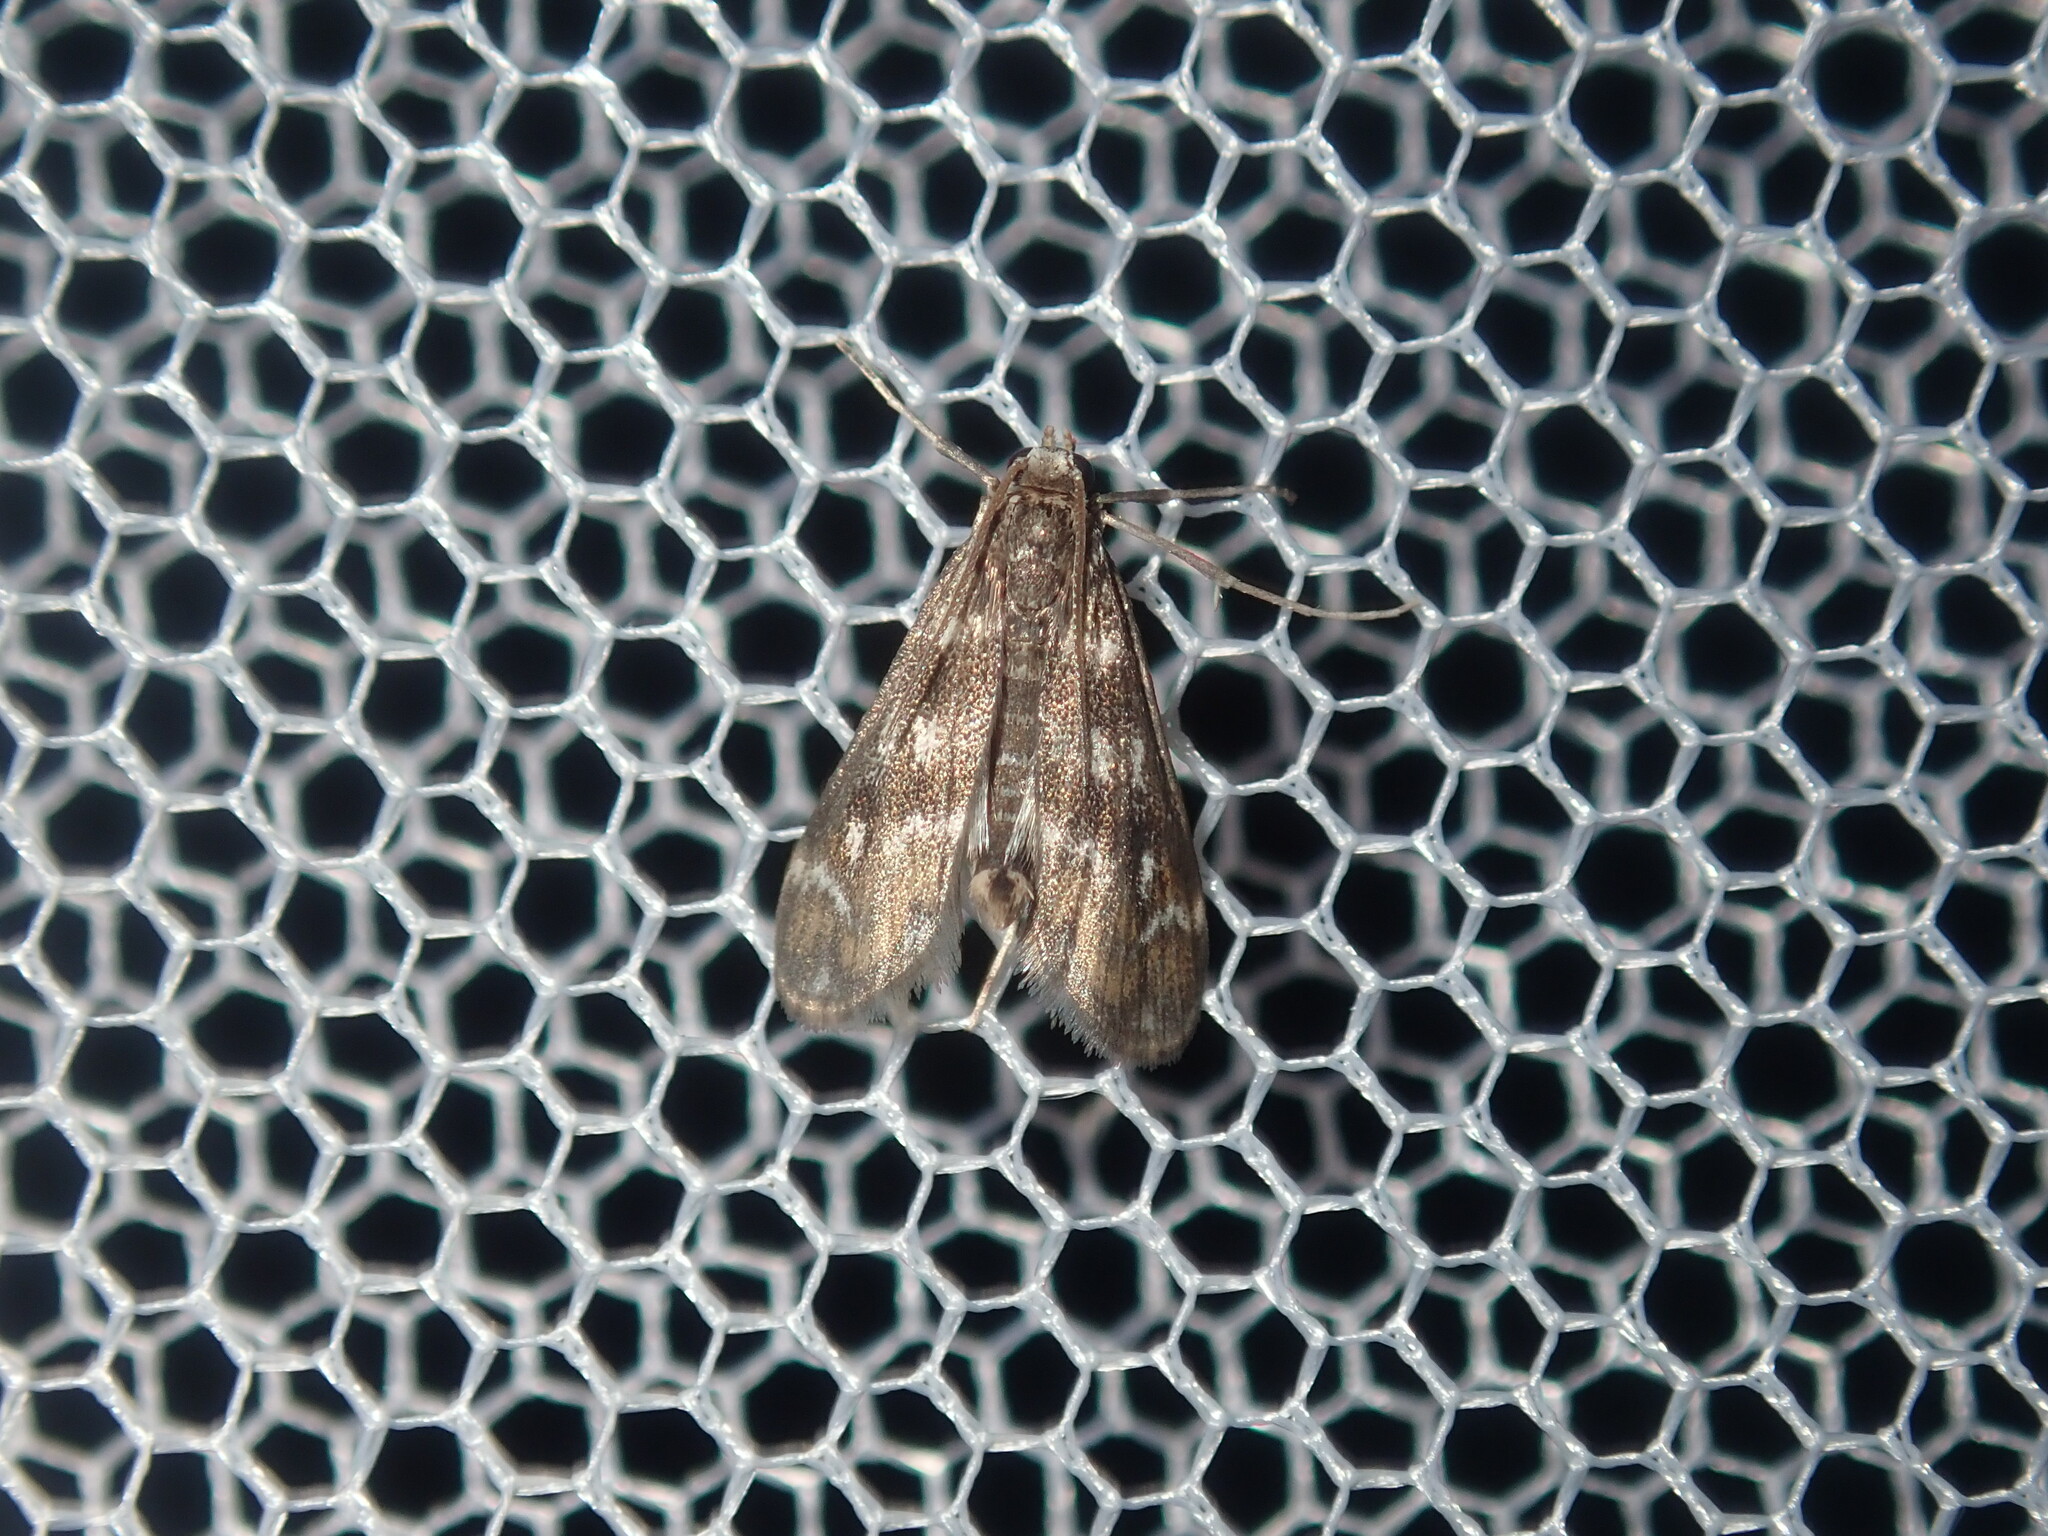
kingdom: Animalia
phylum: Arthropoda
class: Insecta
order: Lepidoptera
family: Crambidae
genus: Hygraula
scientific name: Hygraula nitens
